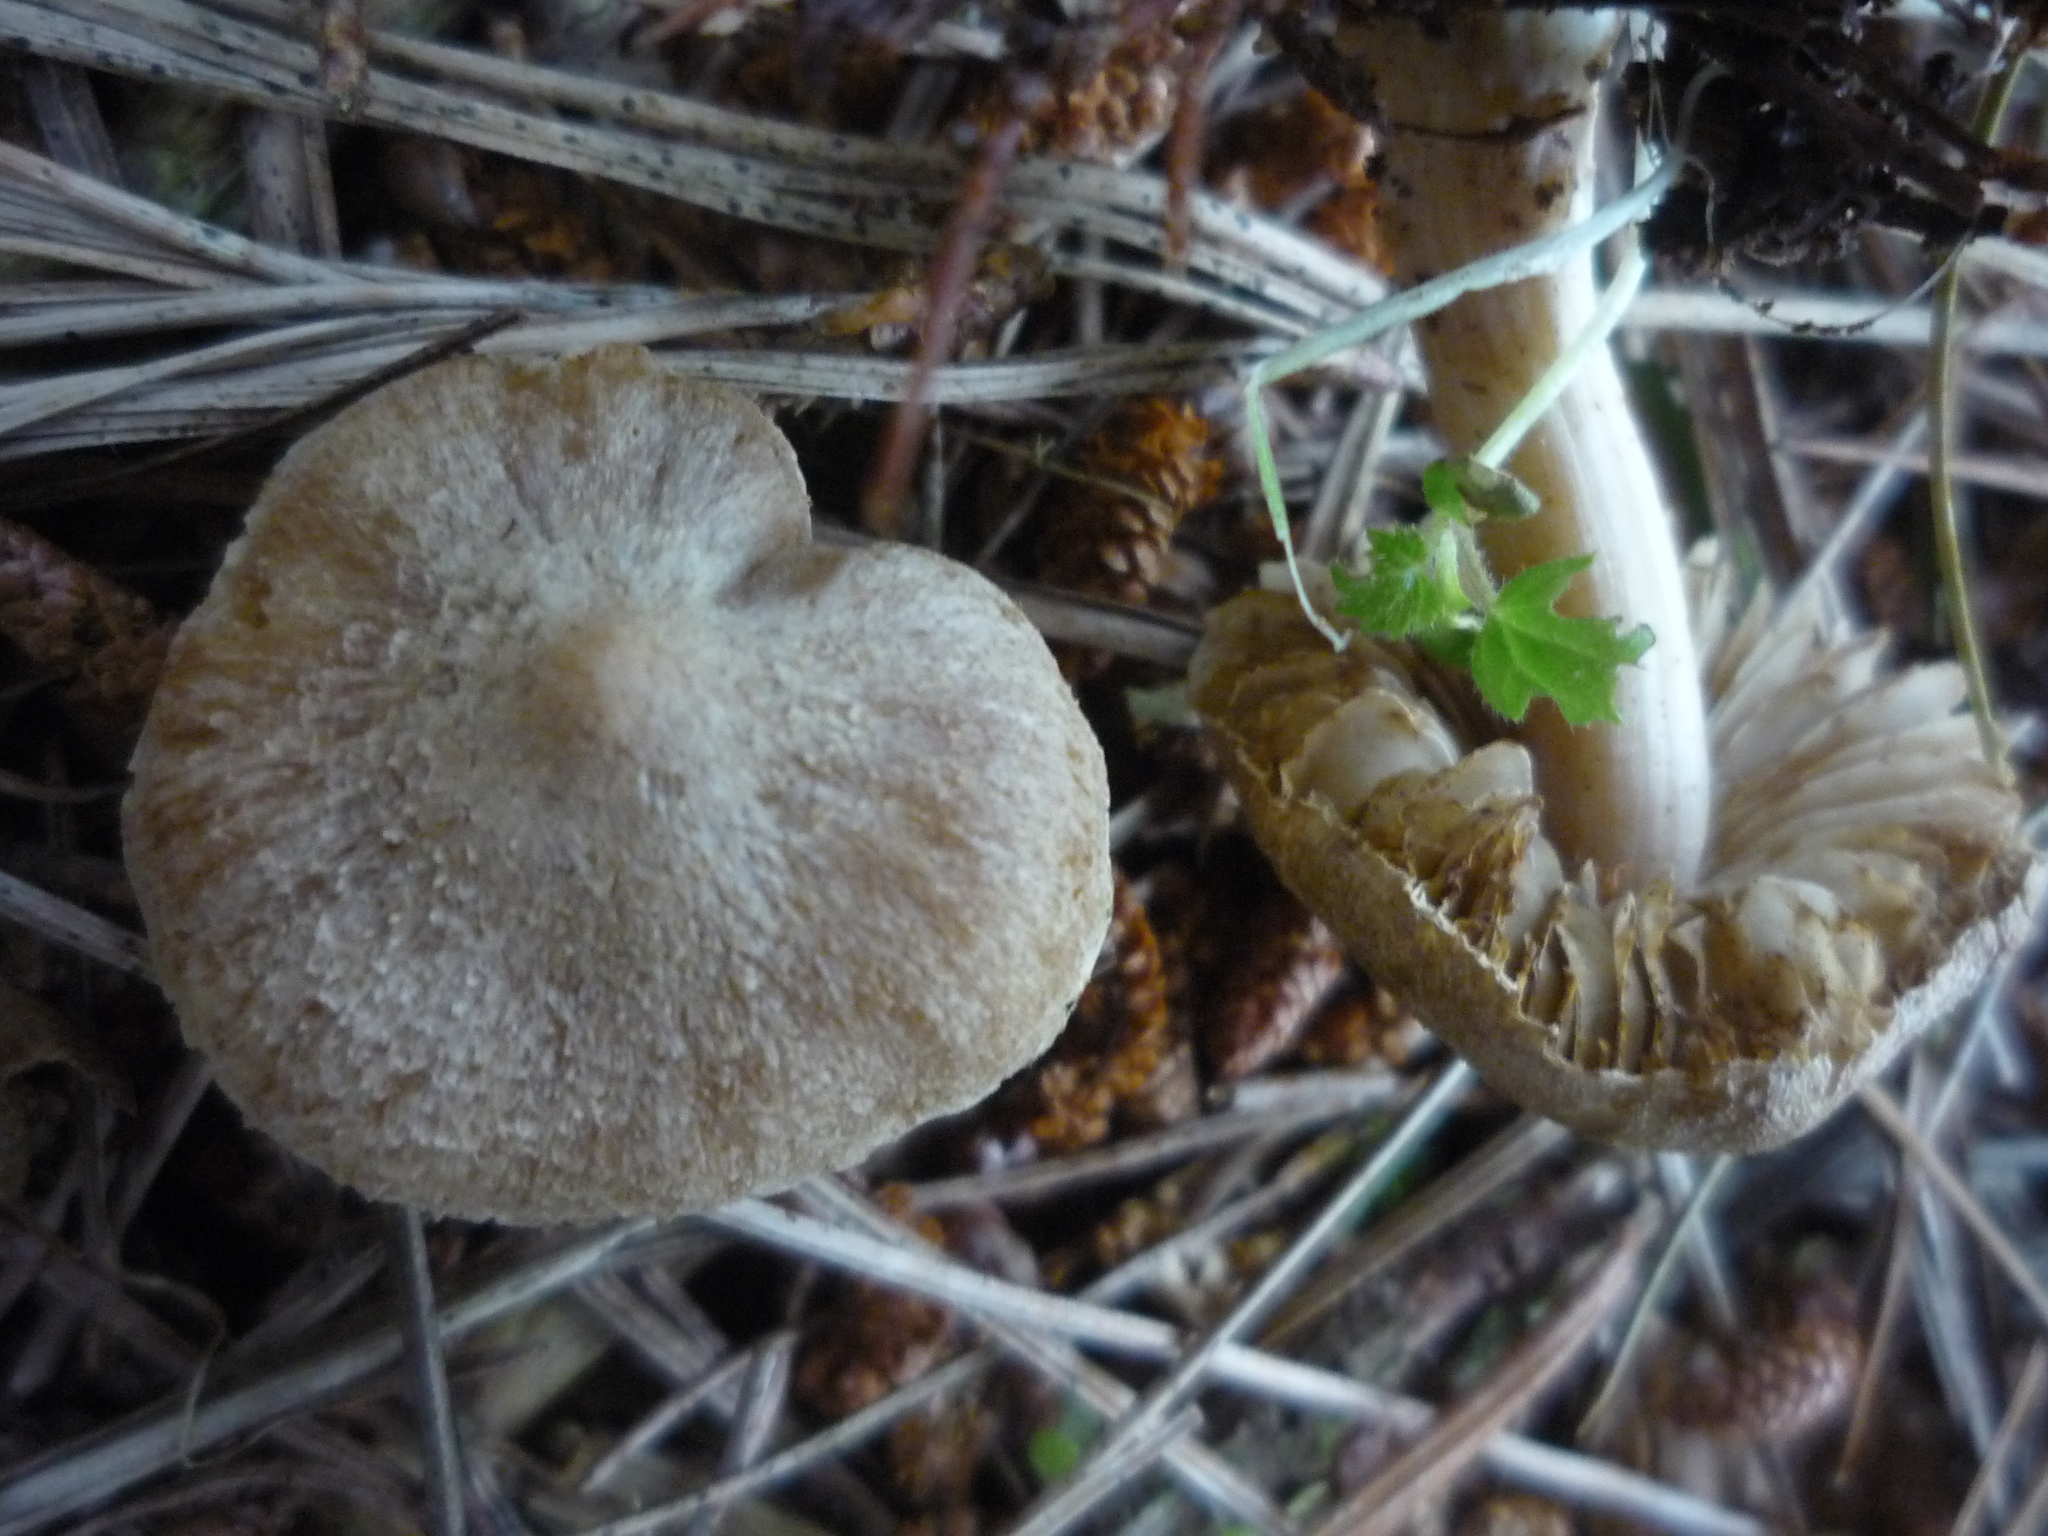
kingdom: Fungi
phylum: Basidiomycota
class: Agaricomycetes
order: Agaricales
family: Inocybaceae
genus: Inocybe
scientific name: Inocybe sindonia
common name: Beige fibrecap
